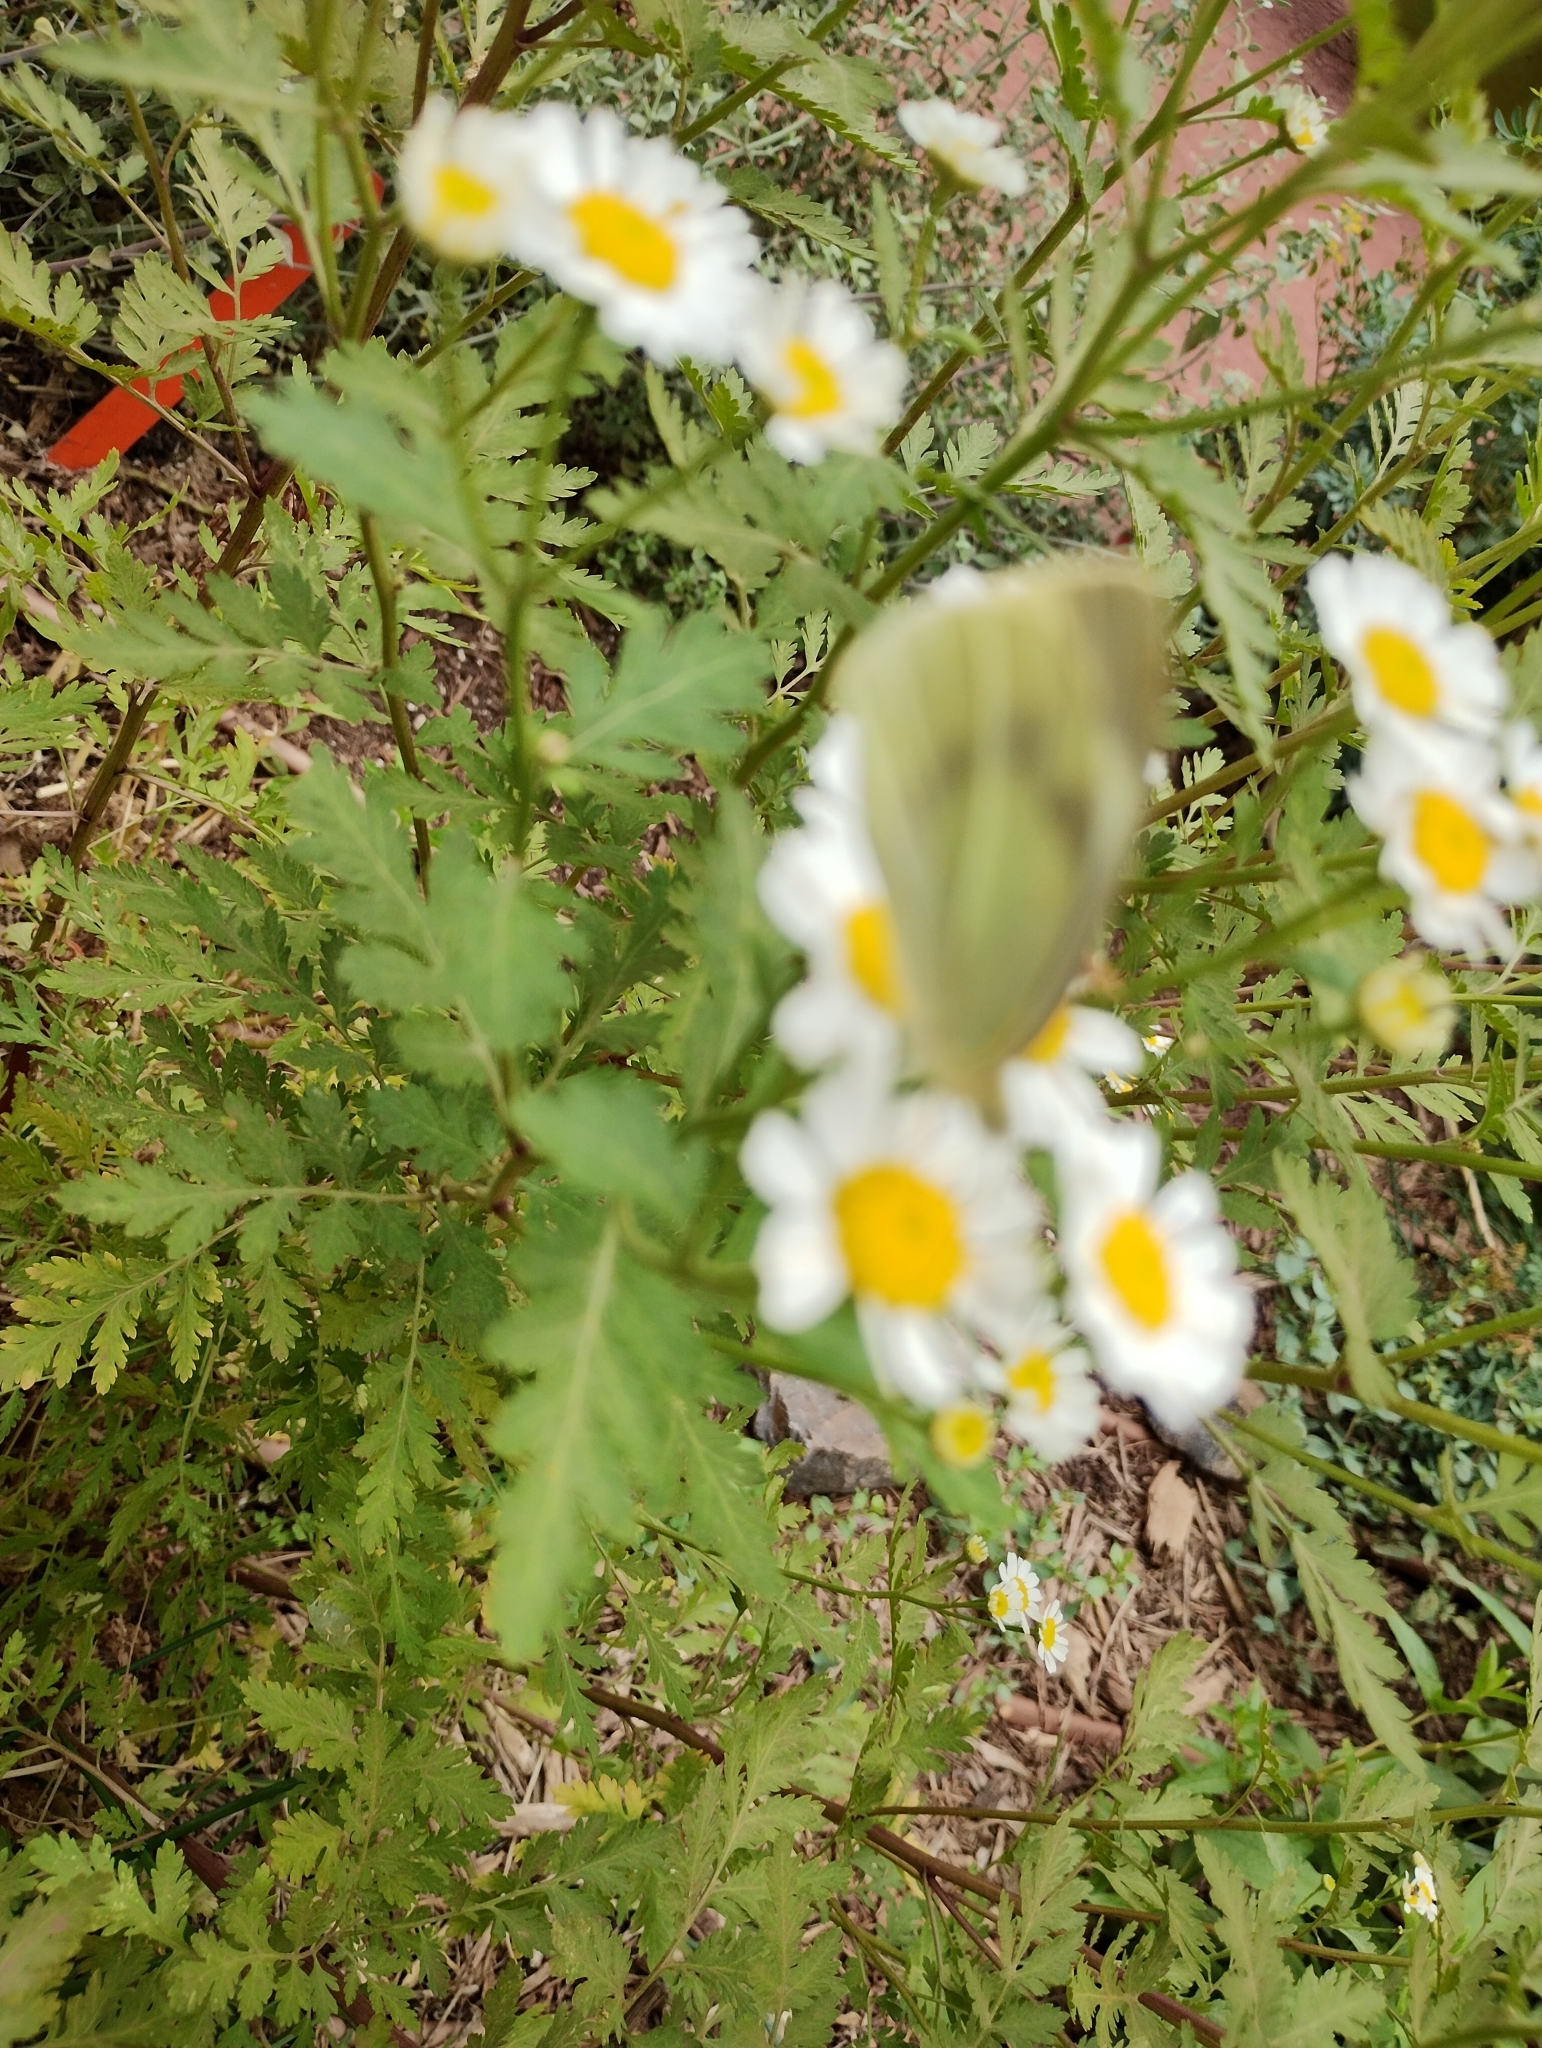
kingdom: Animalia
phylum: Arthropoda
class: Insecta
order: Lepidoptera
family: Pieridae
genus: Pieris
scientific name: Pieris rapae
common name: Small white
